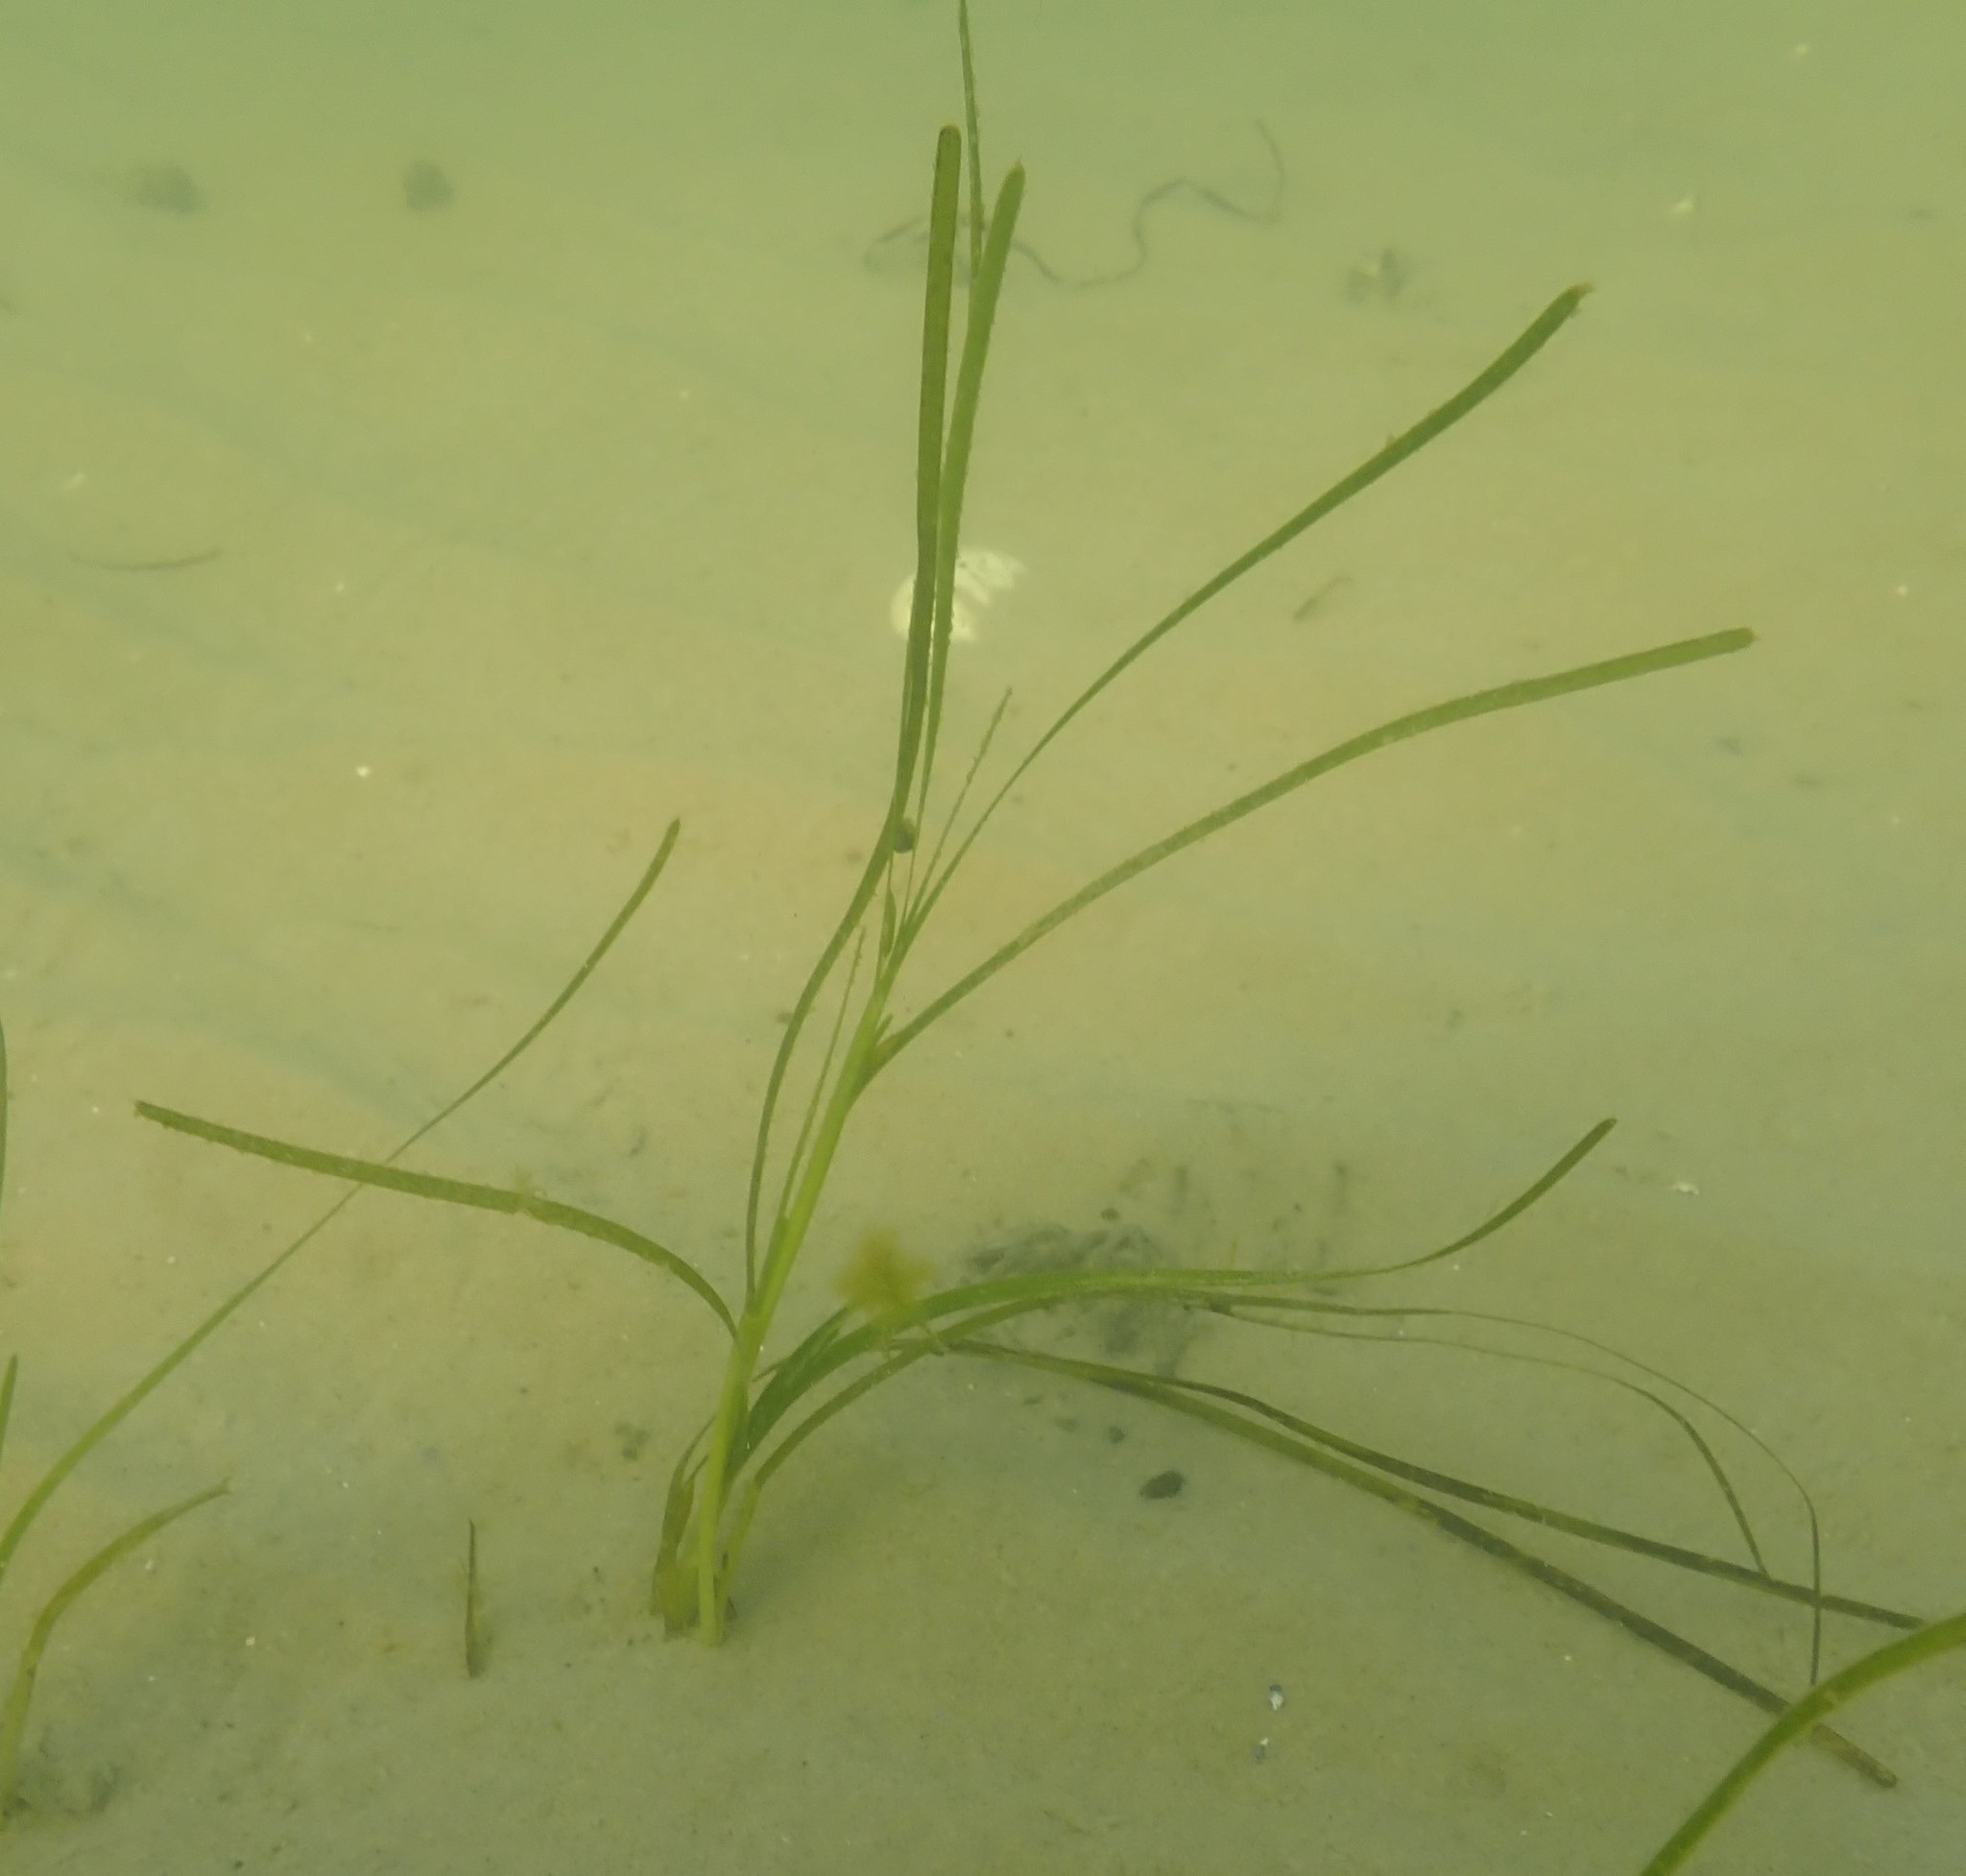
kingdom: Plantae
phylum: Tracheophyta
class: Liliopsida
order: Alismatales
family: Zosteraceae
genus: Zostera
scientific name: Zostera marina
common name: Eelgrass
